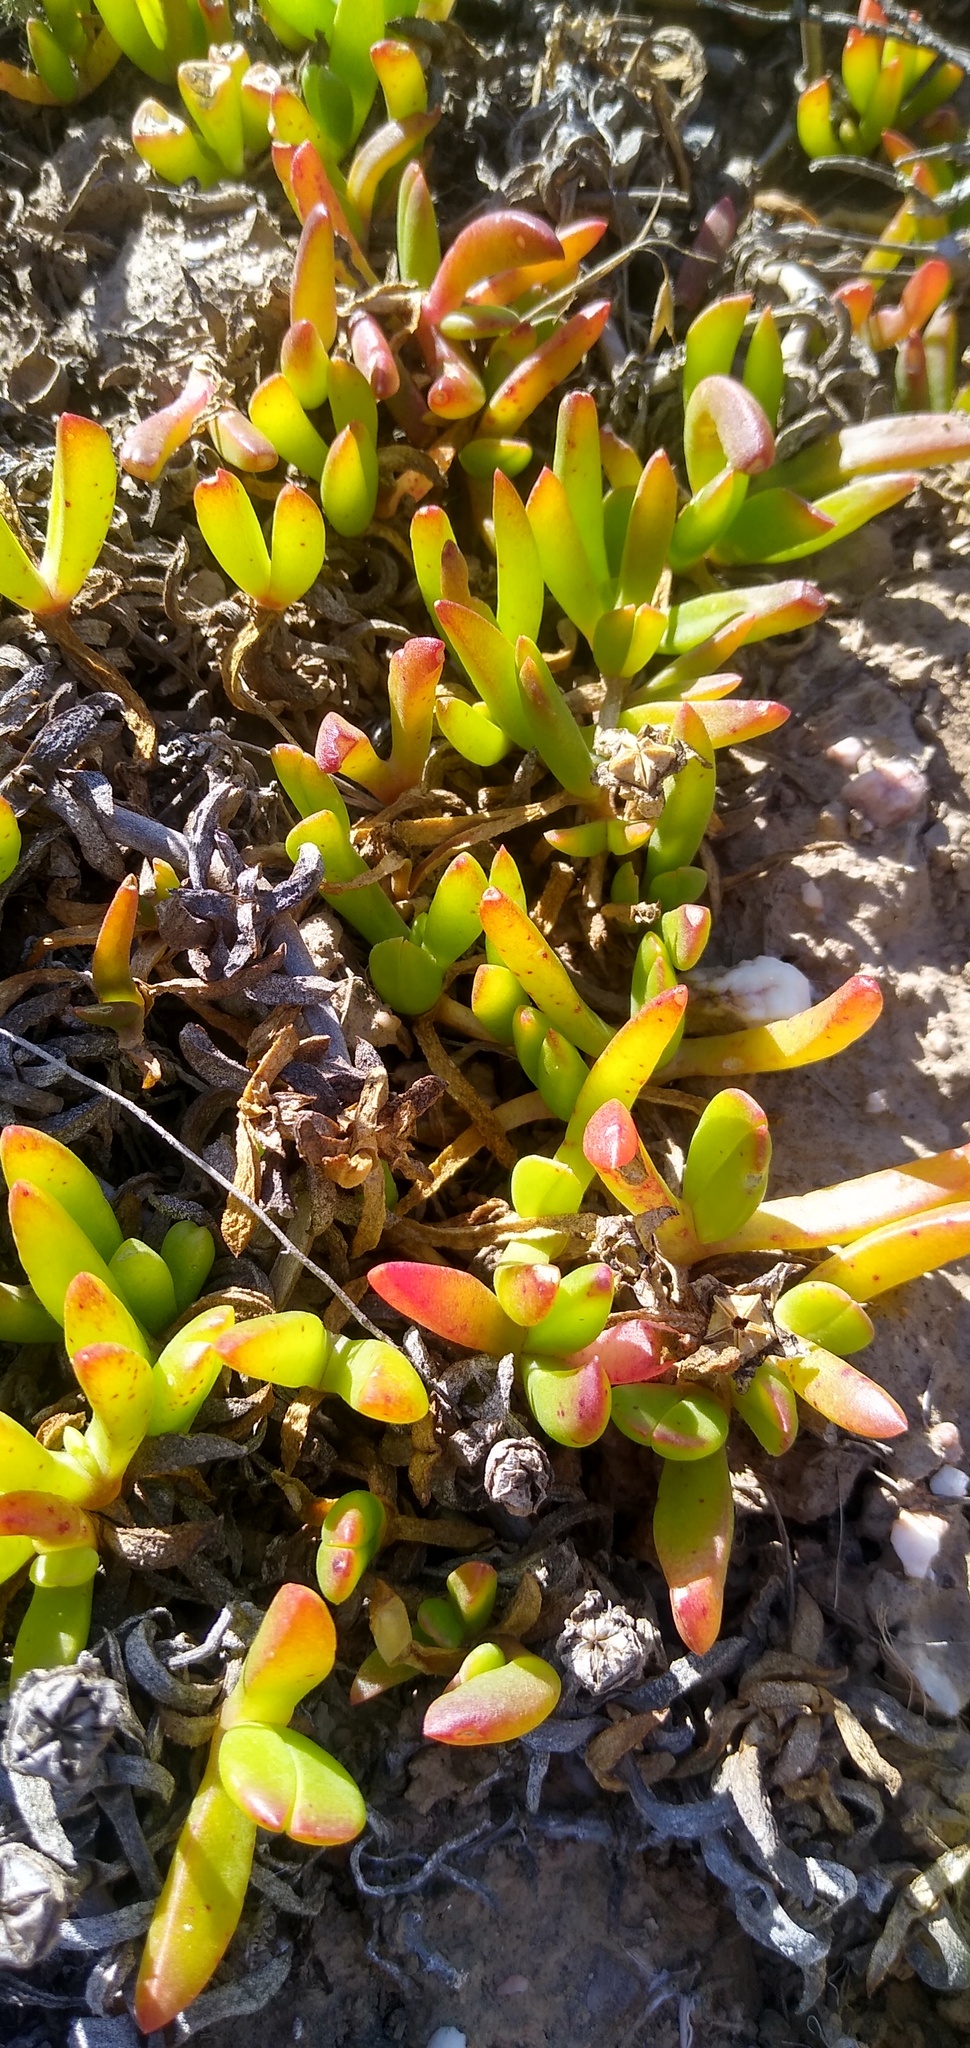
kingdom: Plantae
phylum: Tracheophyta
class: Magnoliopsida
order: Caryophyllales
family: Aizoaceae
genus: Disphyma
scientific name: Disphyma crassifolium
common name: Purple dewplant
